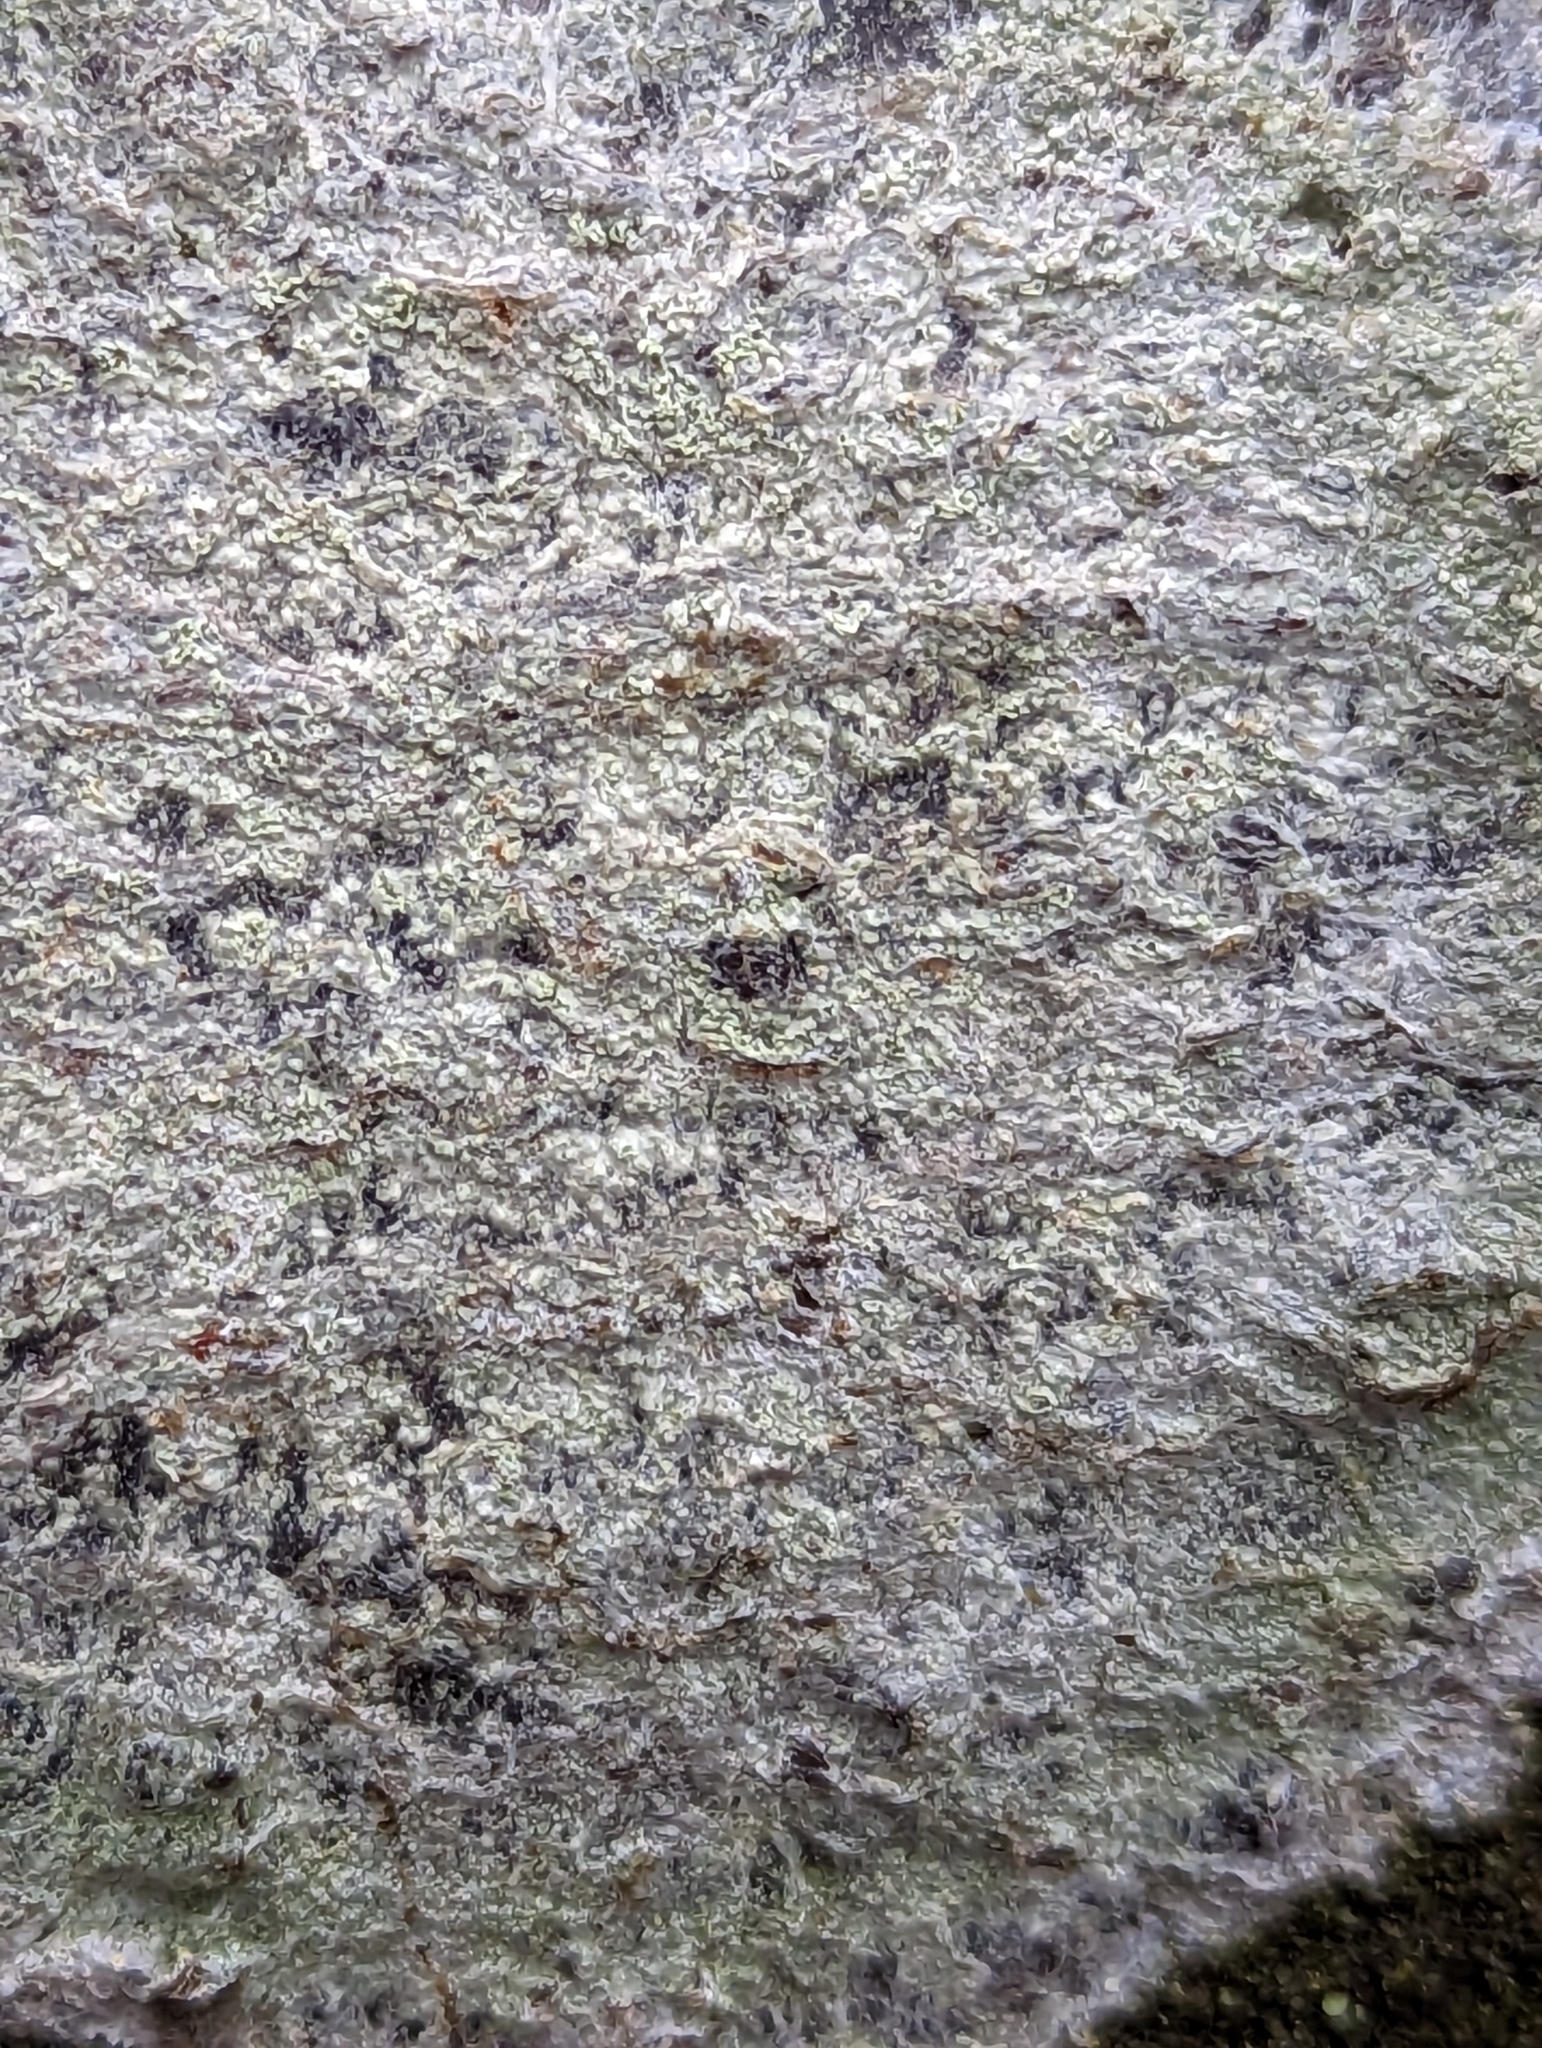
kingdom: Fungi
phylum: Ascomycota
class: Lecanoromycetes
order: Ostropales
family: Phlyctidaceae
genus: Phlyctis
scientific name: Phlyctis argena
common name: Whitewash lichen
